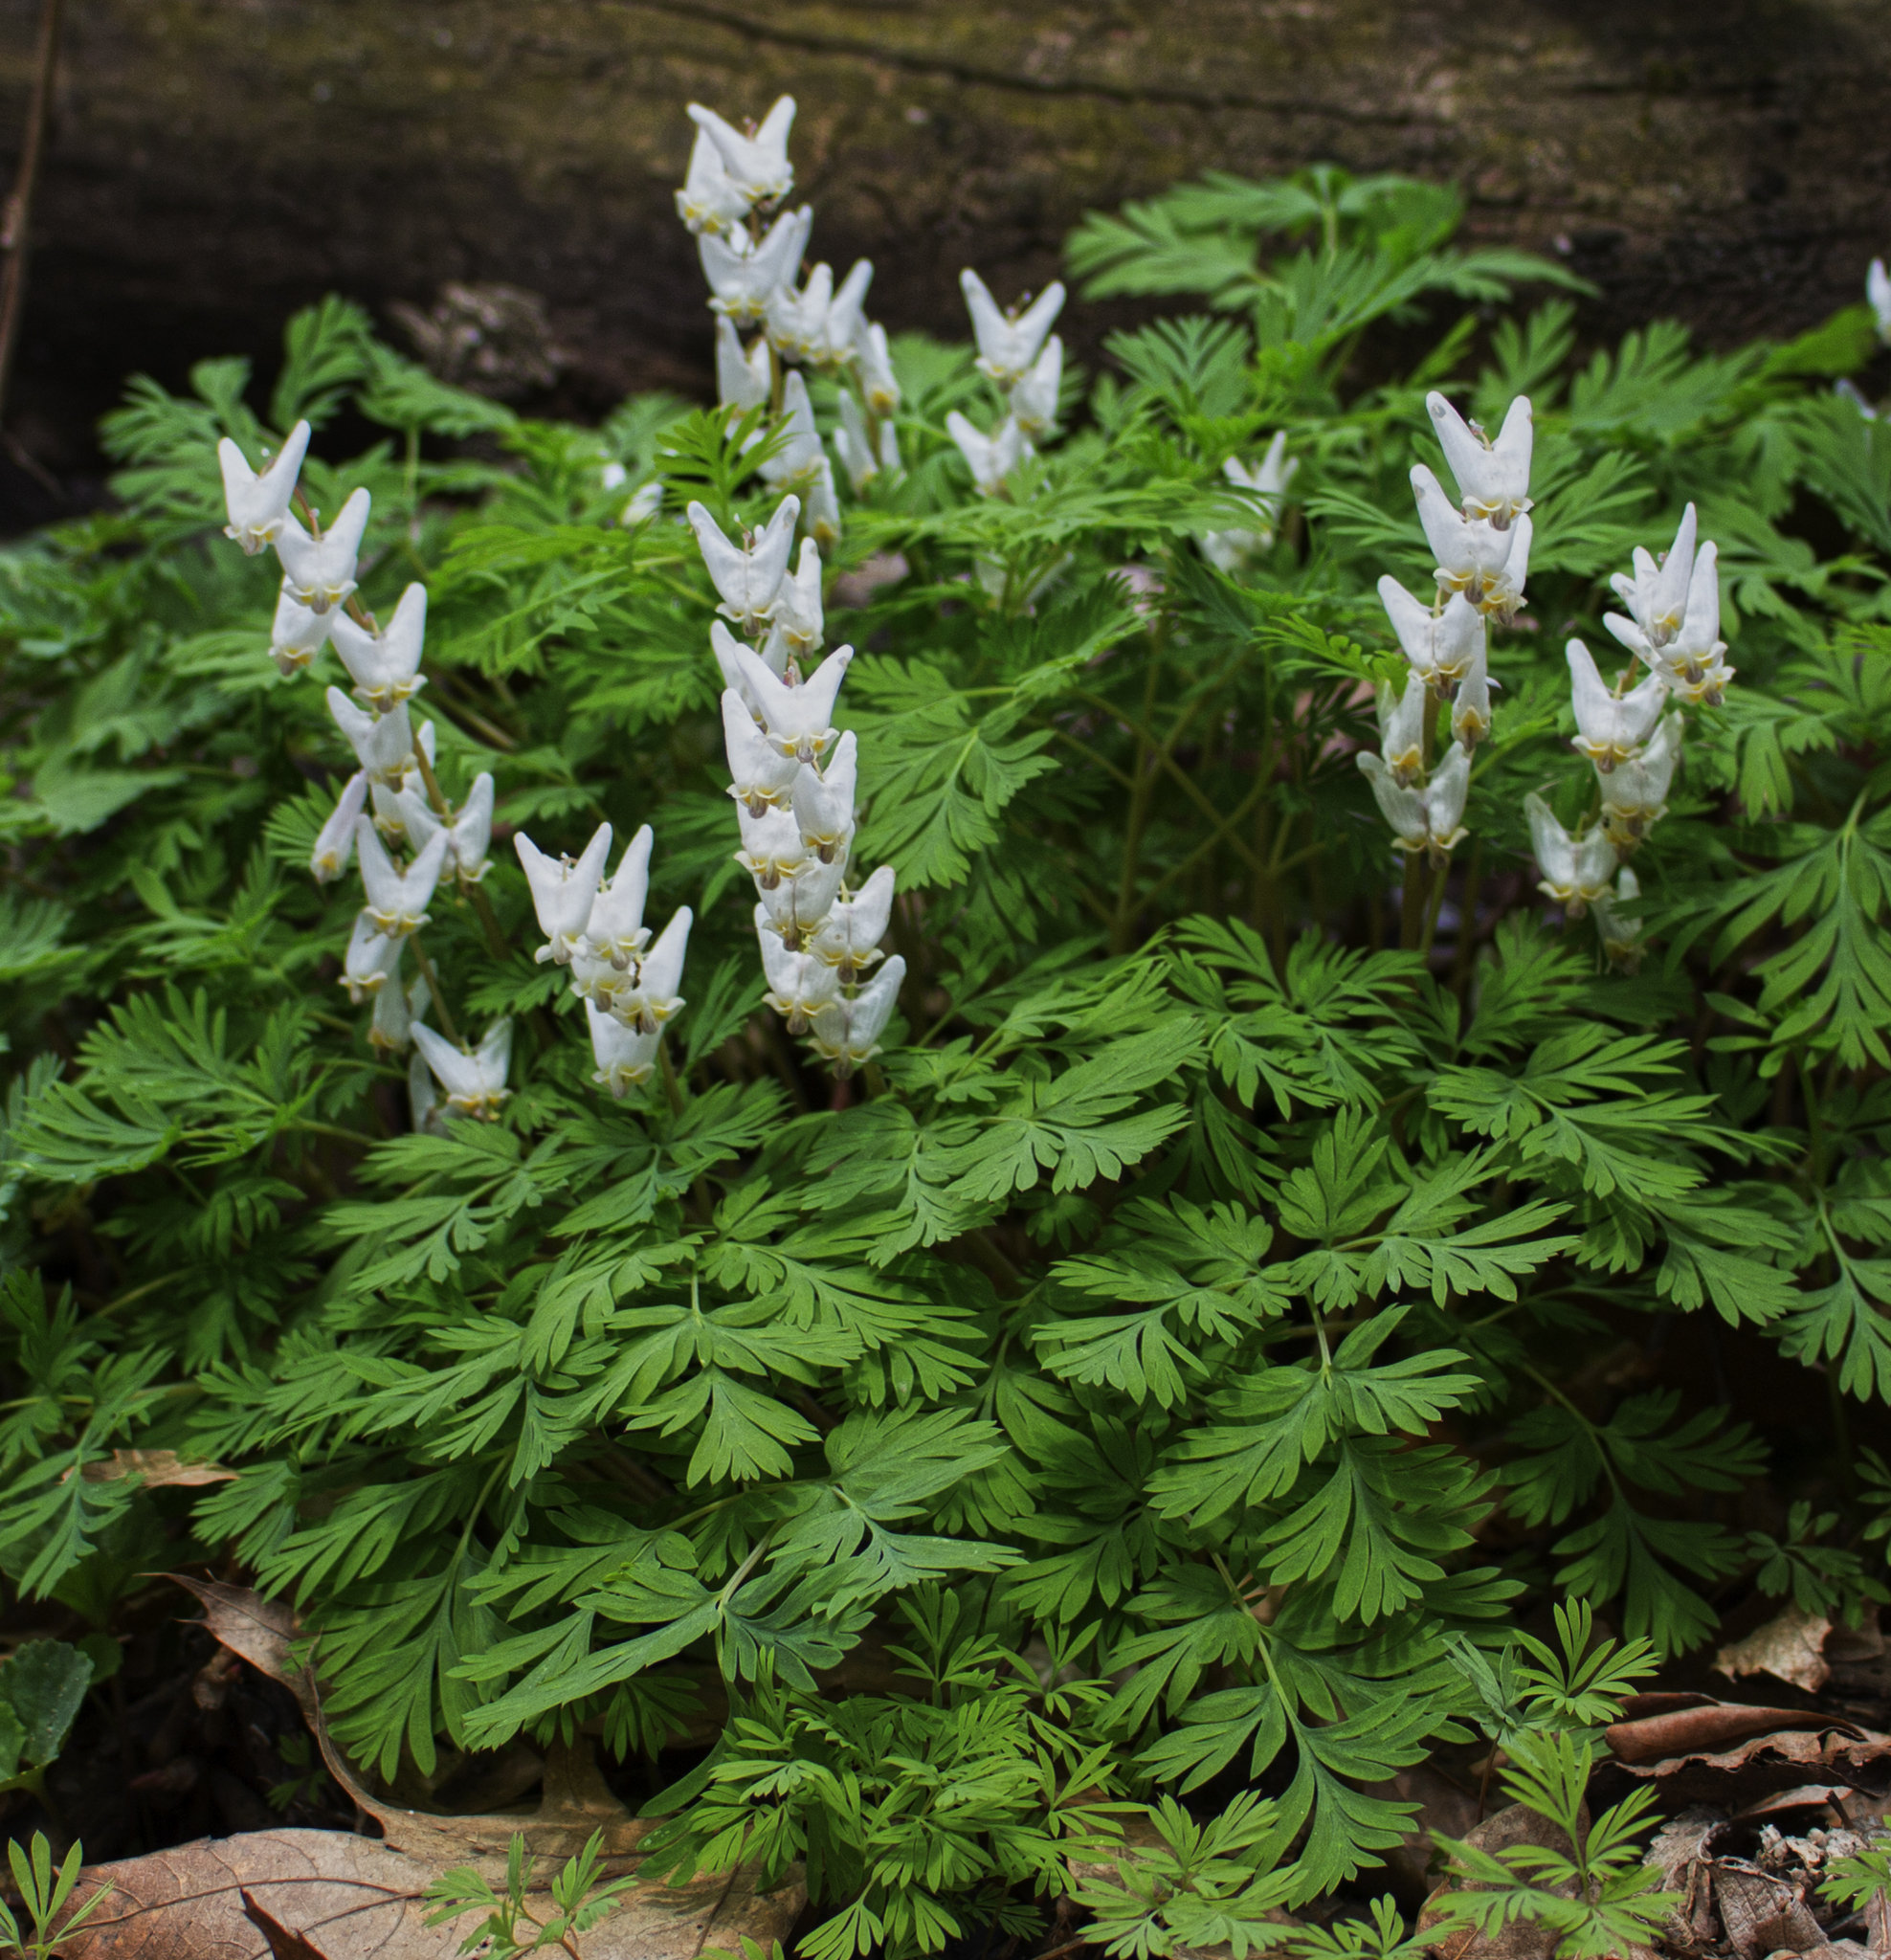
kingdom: Plantae
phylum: Tracheophyta
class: Magnoliopsida
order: Ranunculales
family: Papaveraceae
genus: Dicentra
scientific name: Dicentra cucullaria
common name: Dutchman's breeches
